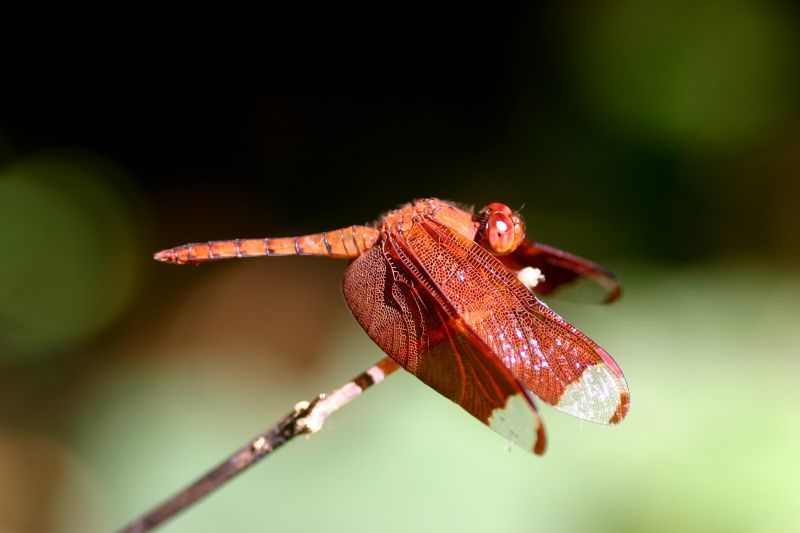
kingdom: Animalia
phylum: Arthropoda
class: Insecta
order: Odonata
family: Libellulidae
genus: Neurothemis
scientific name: Neurothemis fulvia
